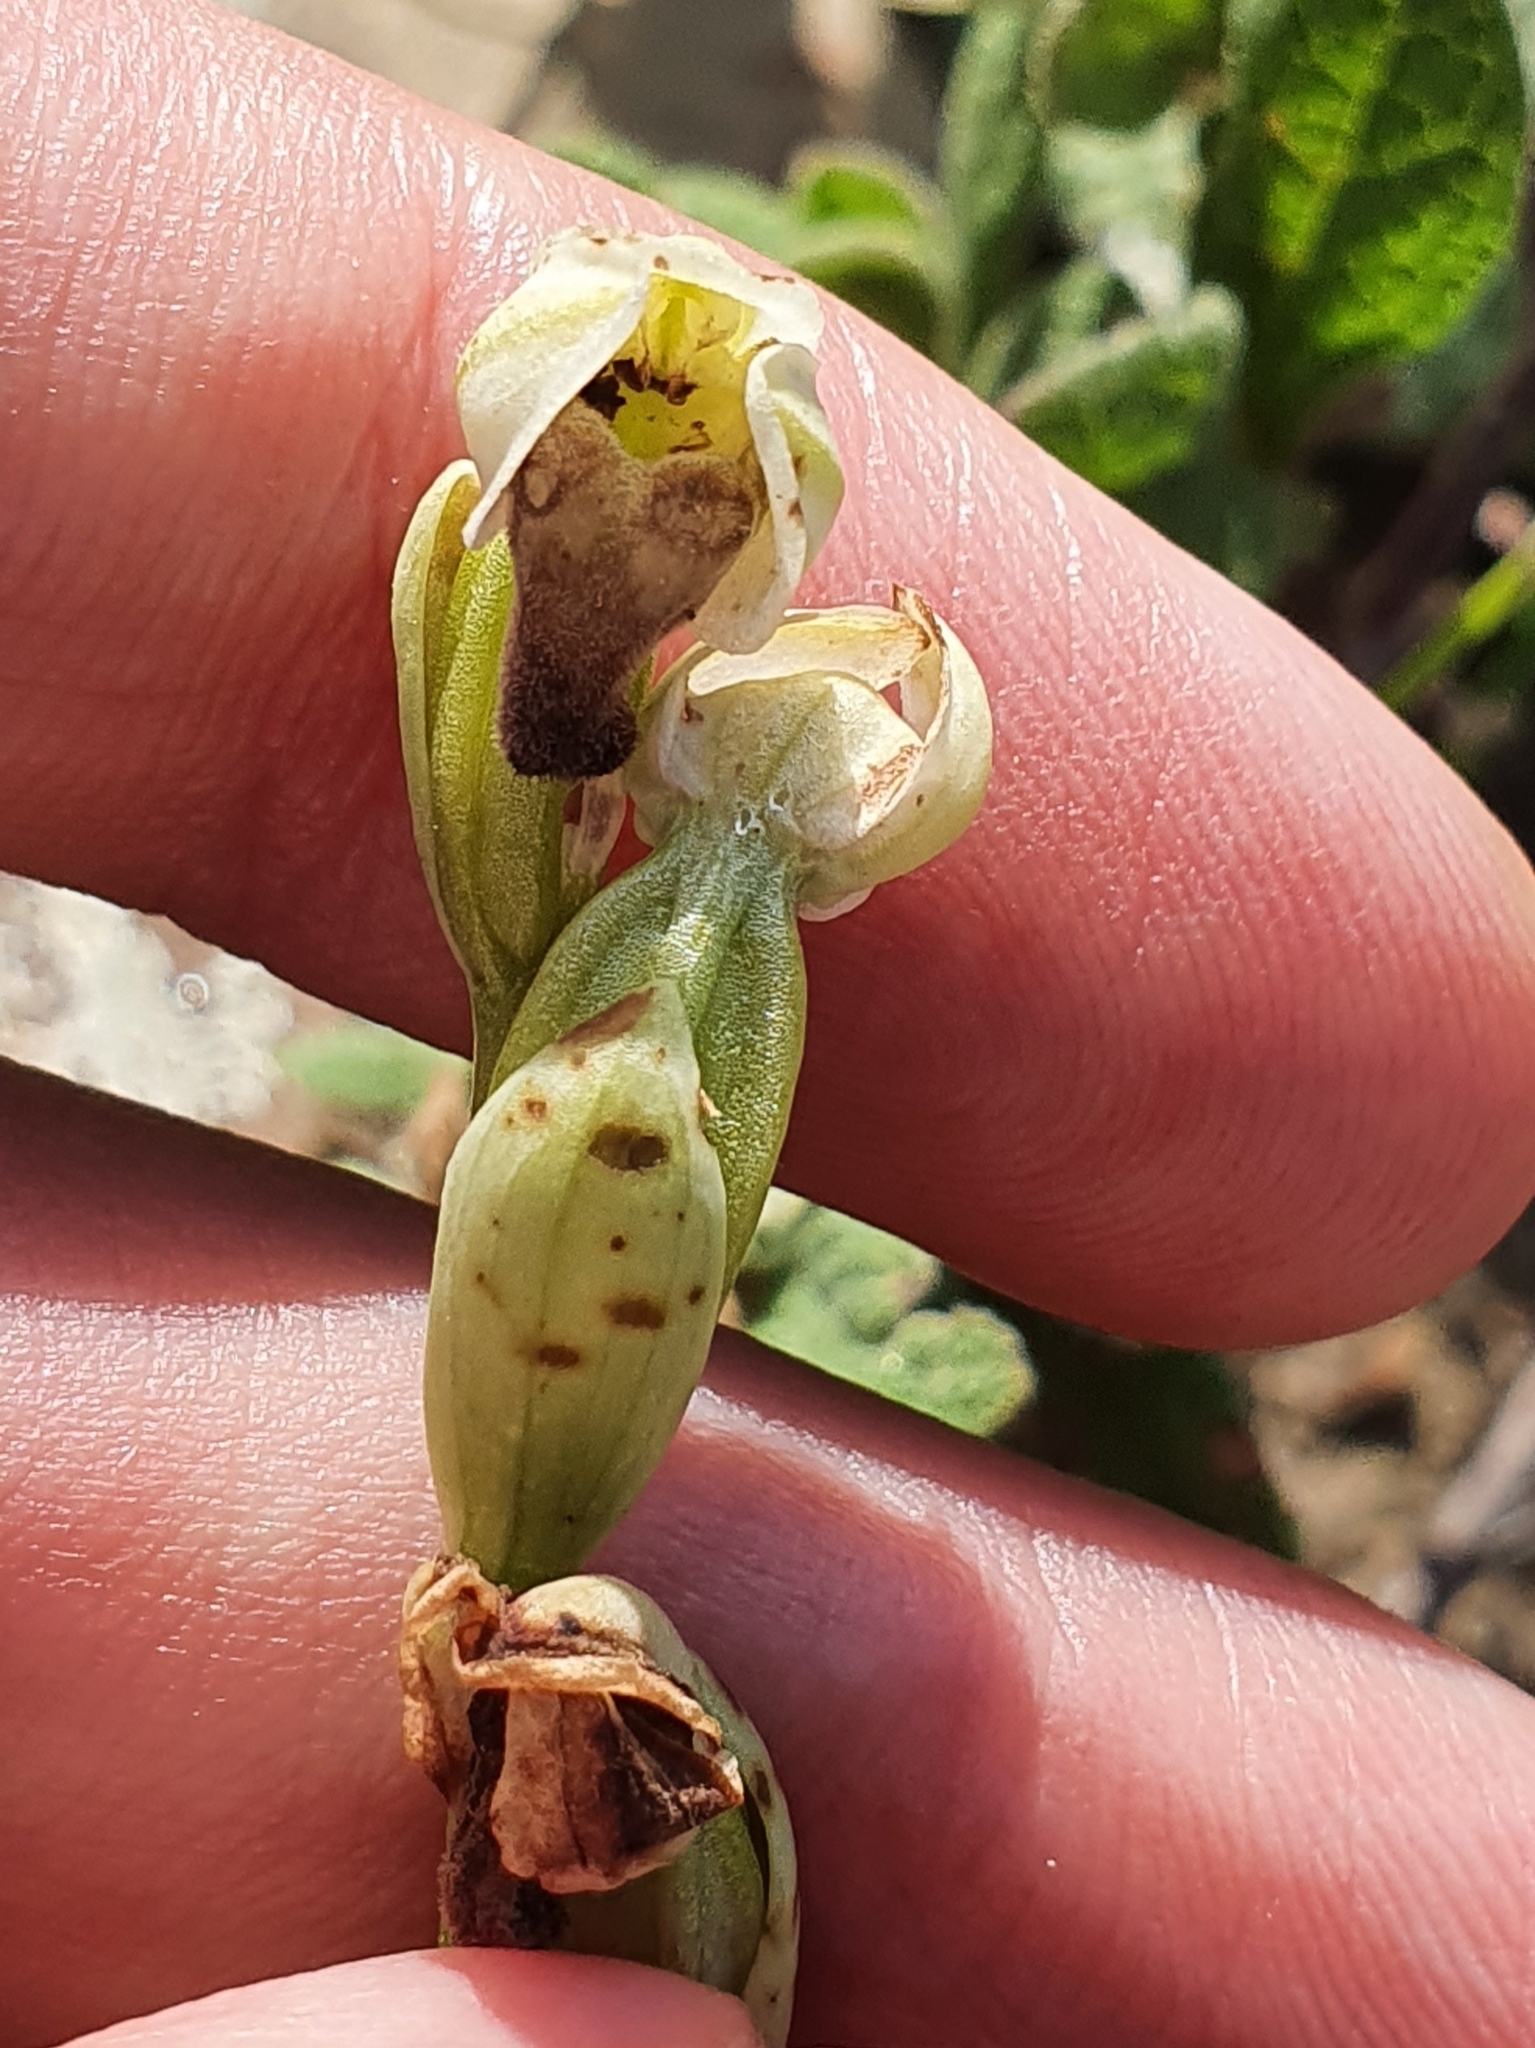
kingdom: Plantae
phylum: Tracheophyta
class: Liliopsida
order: Asparagales
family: Orchidaceae
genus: Ophrys
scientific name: Ophrys fusca
